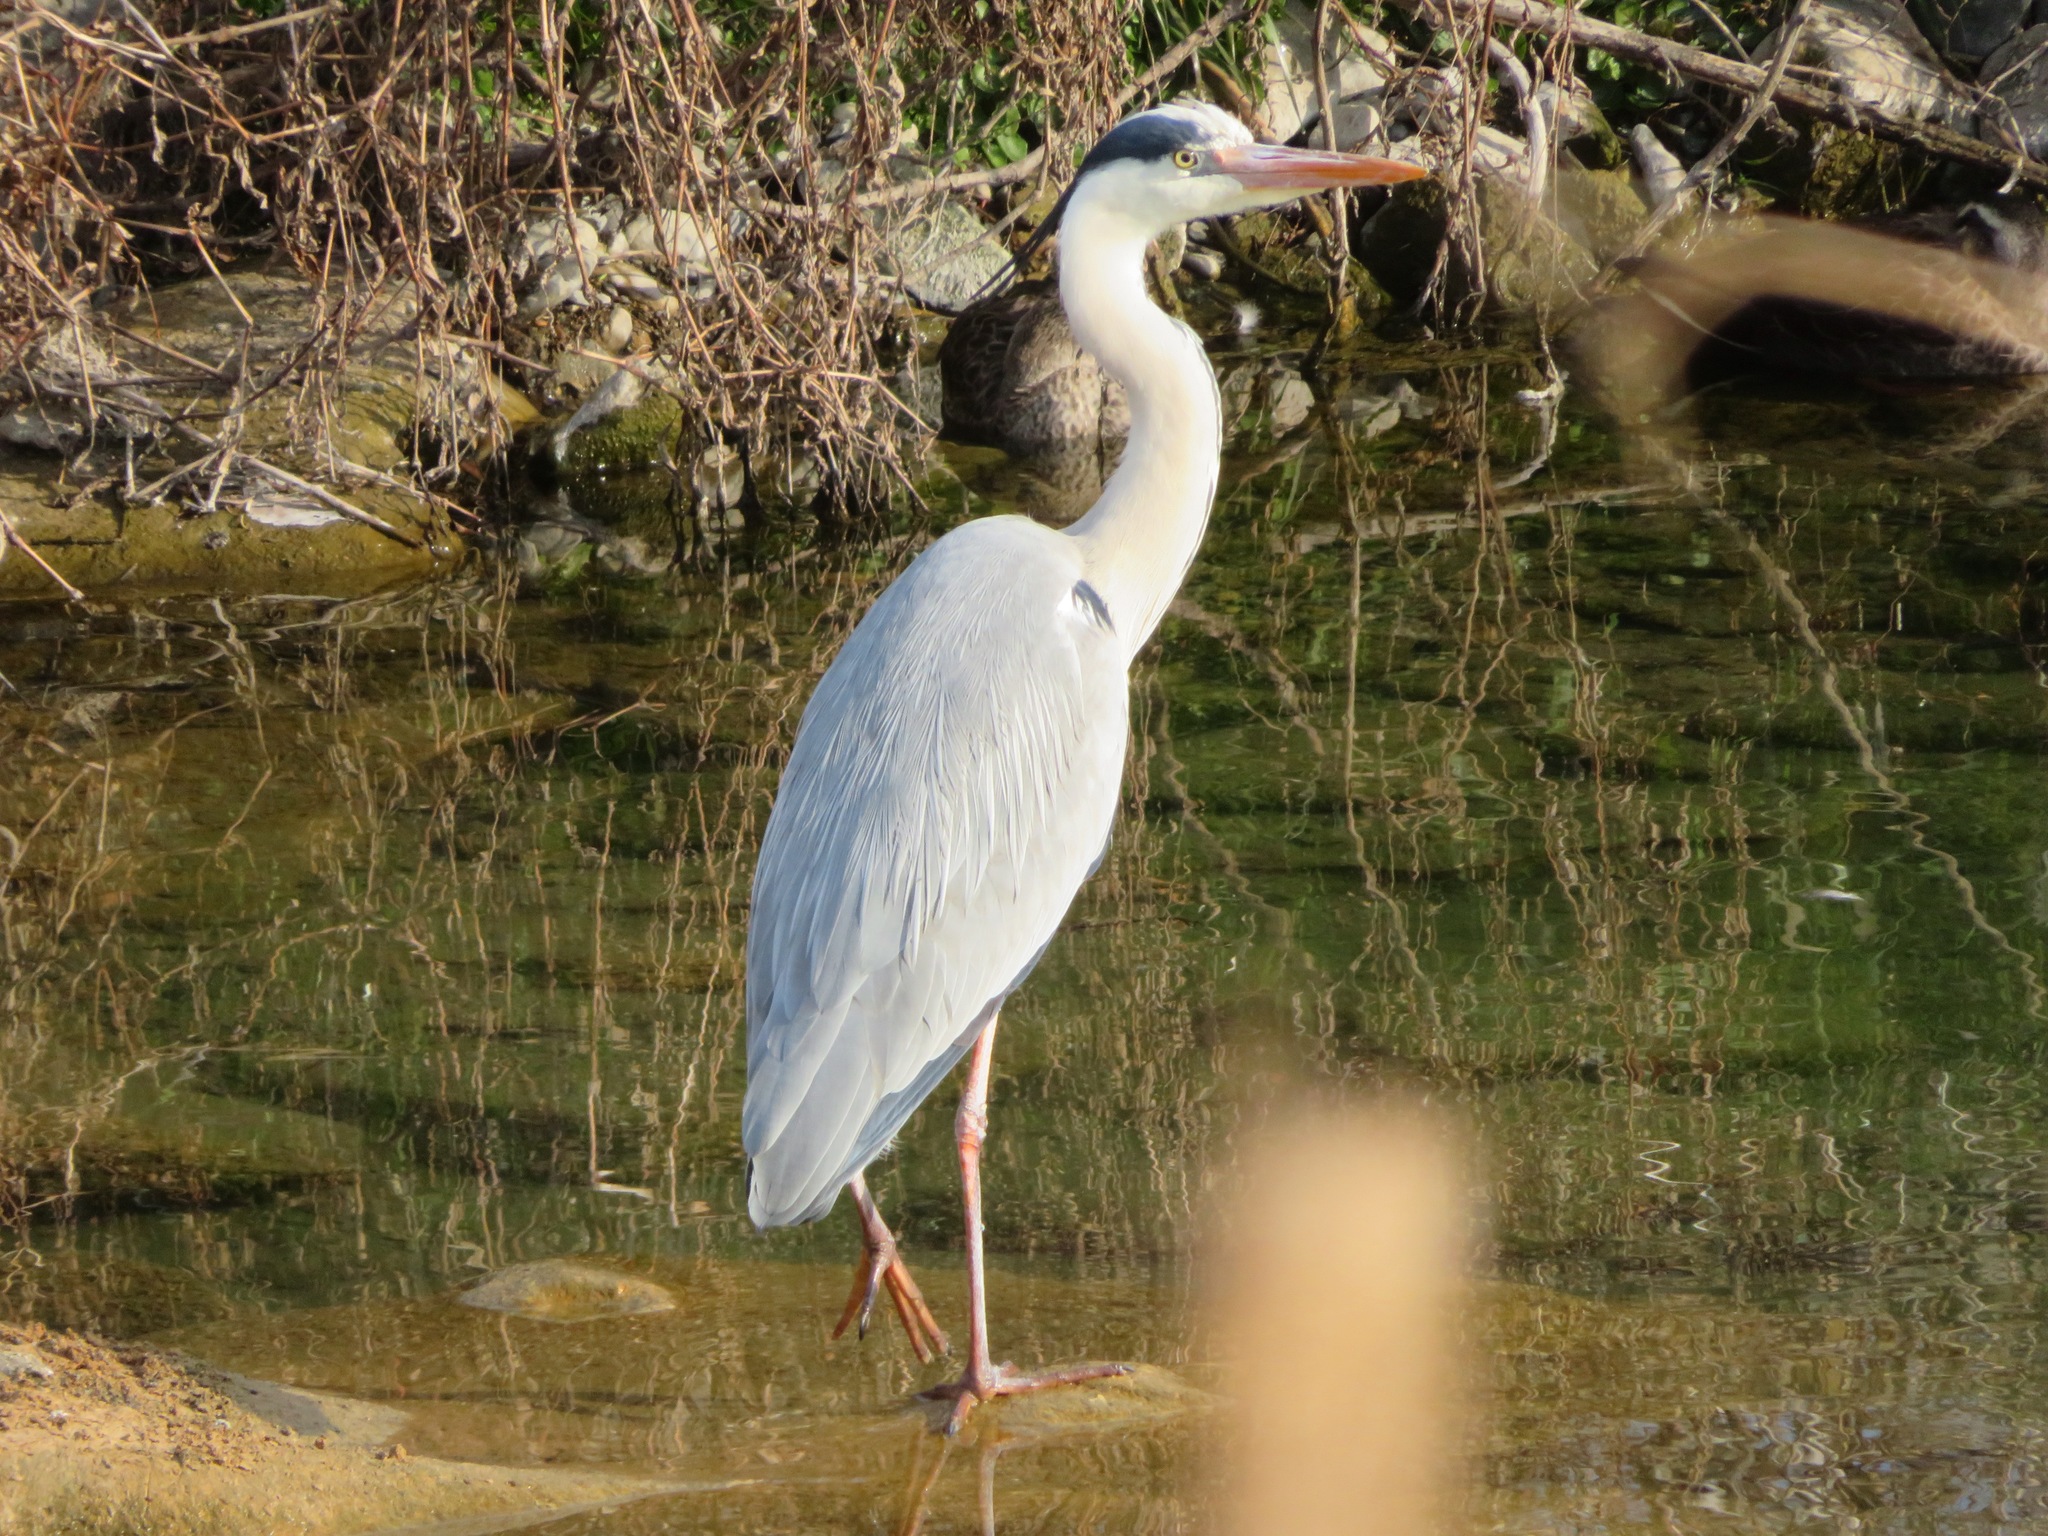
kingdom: Animalia
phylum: Chordata
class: Aves
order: Pelecaniformes
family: Ardeidae
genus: Ardea
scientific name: Ardea cinerea
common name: Grey heron
